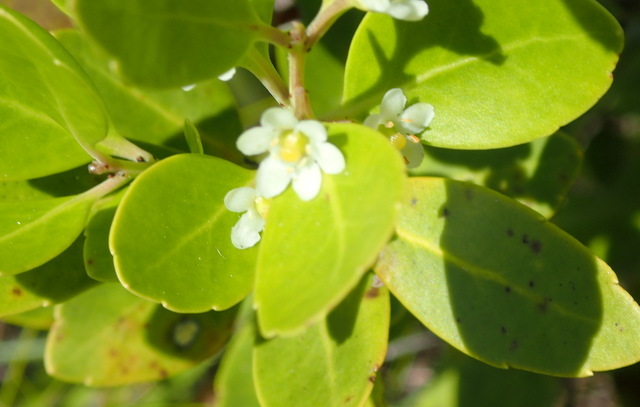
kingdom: Plantae
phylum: Tracheophyta
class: Magnoliopsida
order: Aquifoliales
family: Aquifoliaceae
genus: Ilex
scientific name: Ilex glabra
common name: Bitter gallberry
